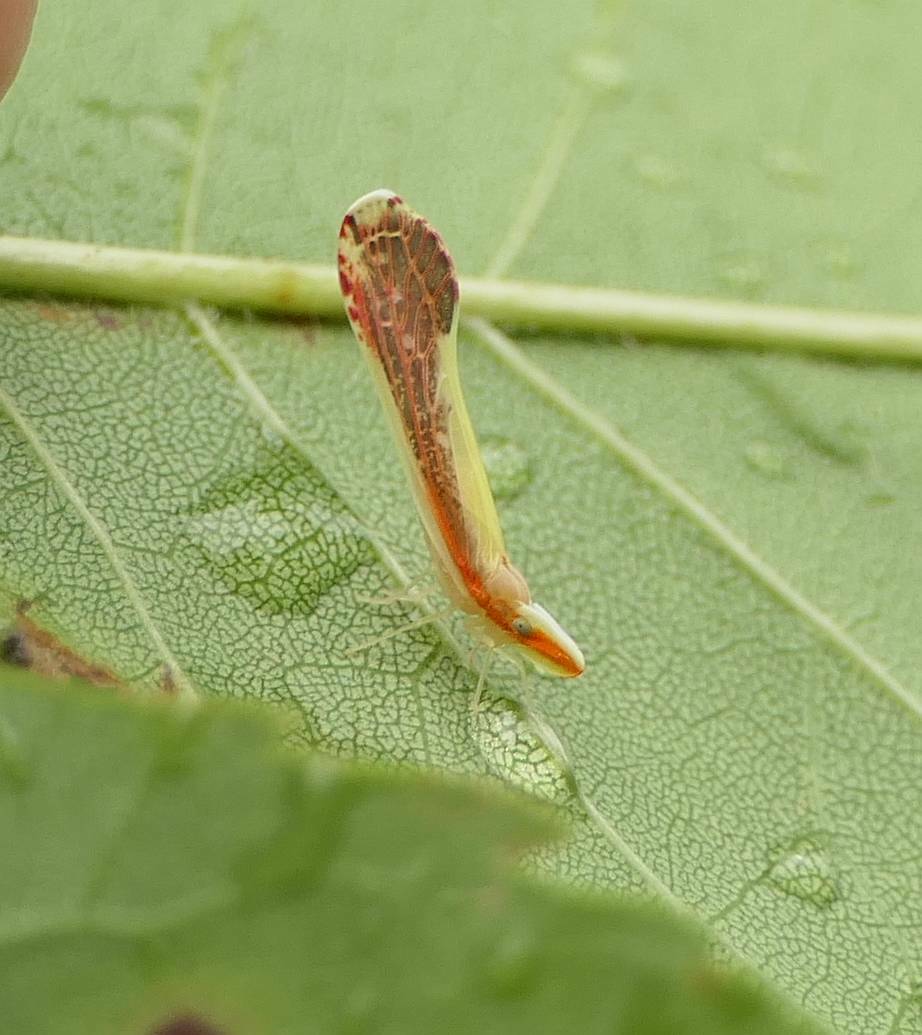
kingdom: Animalia
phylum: Arthropoda
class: Insecta
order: Hemiptera
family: Derbidae
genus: Shellenius
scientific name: Shellenius ballii
